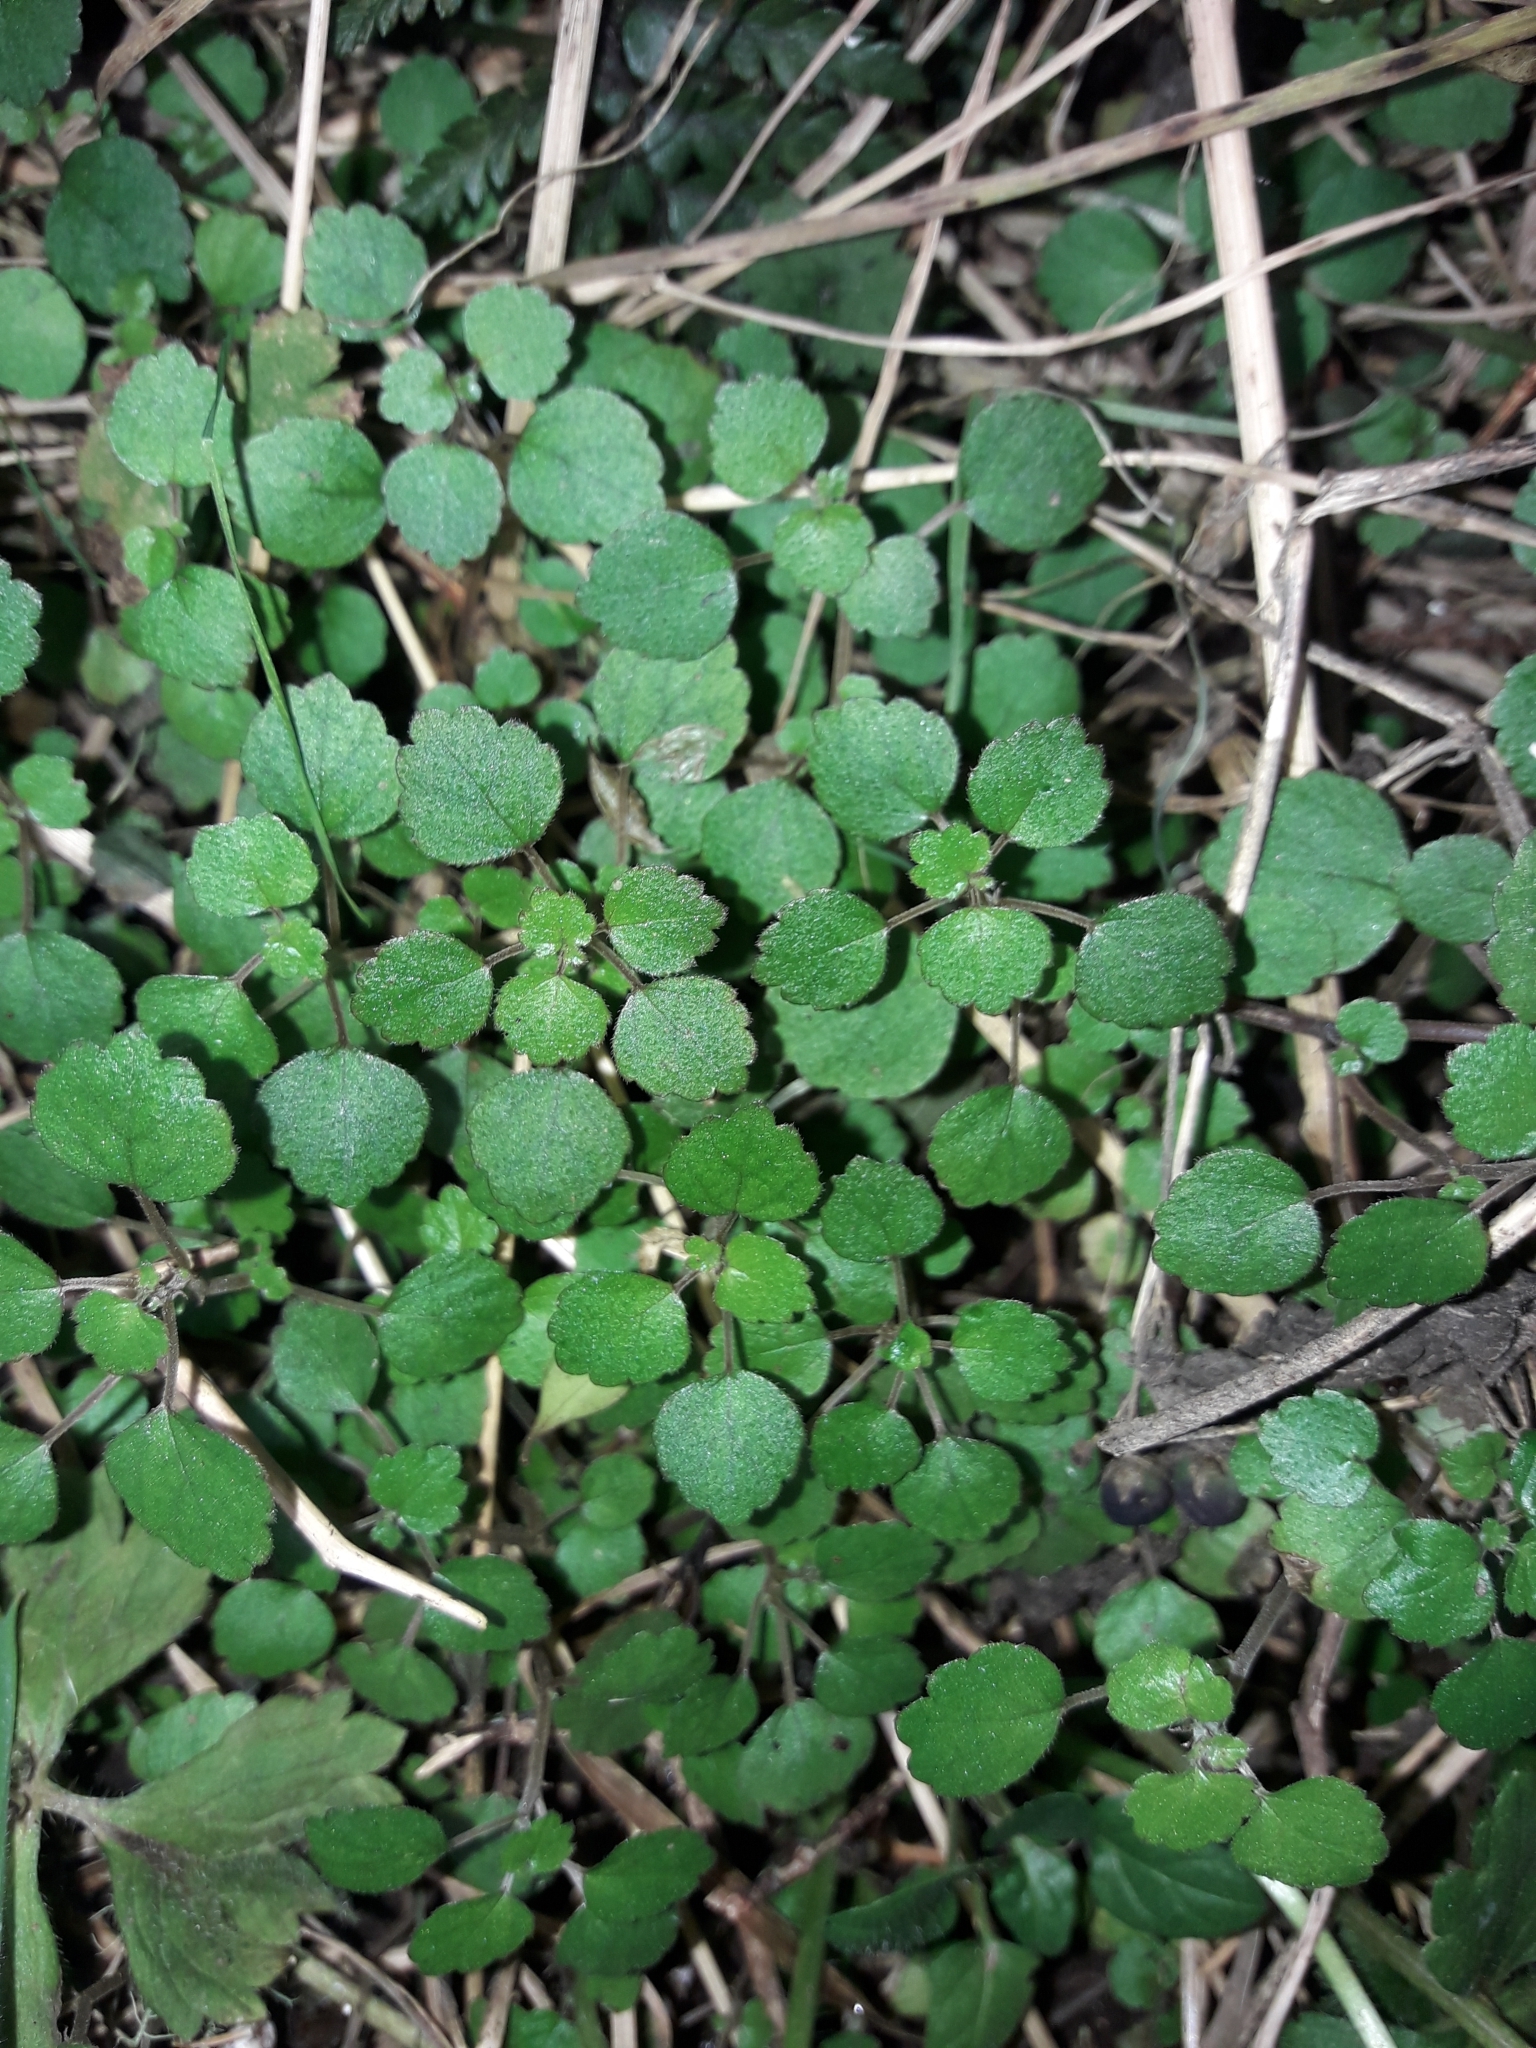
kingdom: Plantae
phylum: Tracheophyta
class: Magnoliopsida
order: Rosales
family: Urticaceae
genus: Australina
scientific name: Australina pusilla
